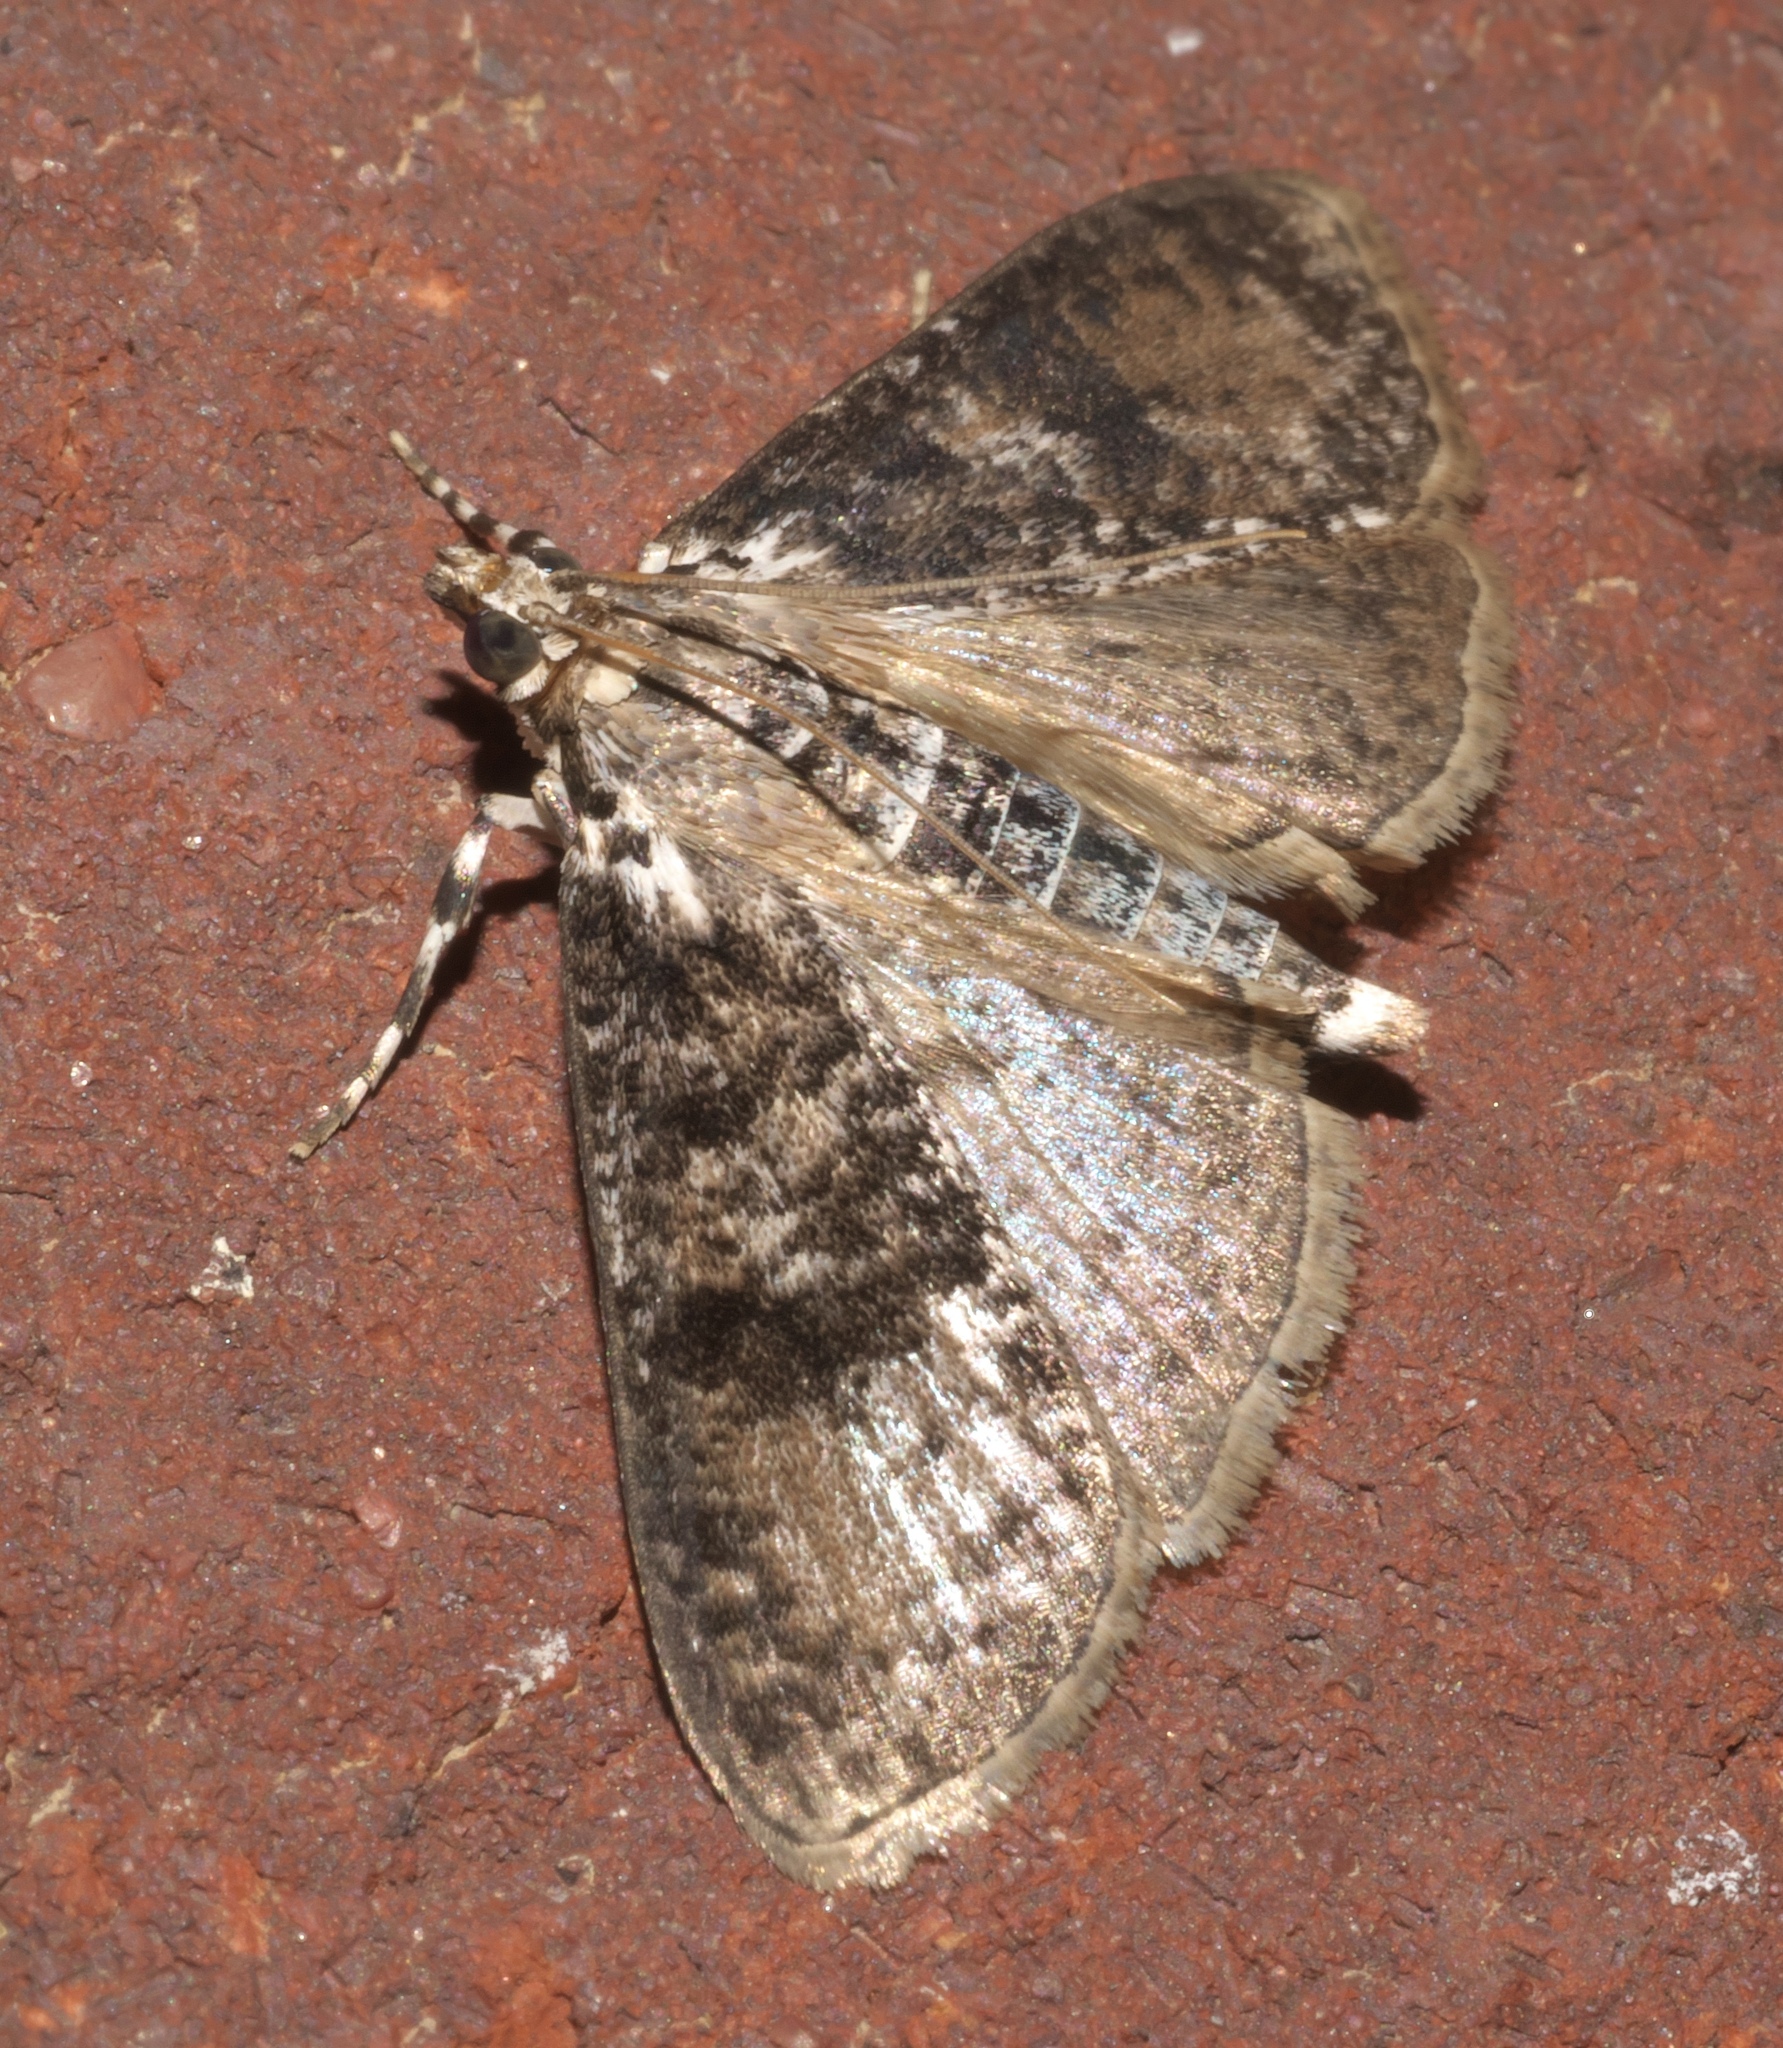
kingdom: Animalia
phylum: Arthropoda
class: Insecta
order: Lepidoptera
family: Crambidae
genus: Palpita
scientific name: Palpita magniferalis
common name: Splendid palpita moth
